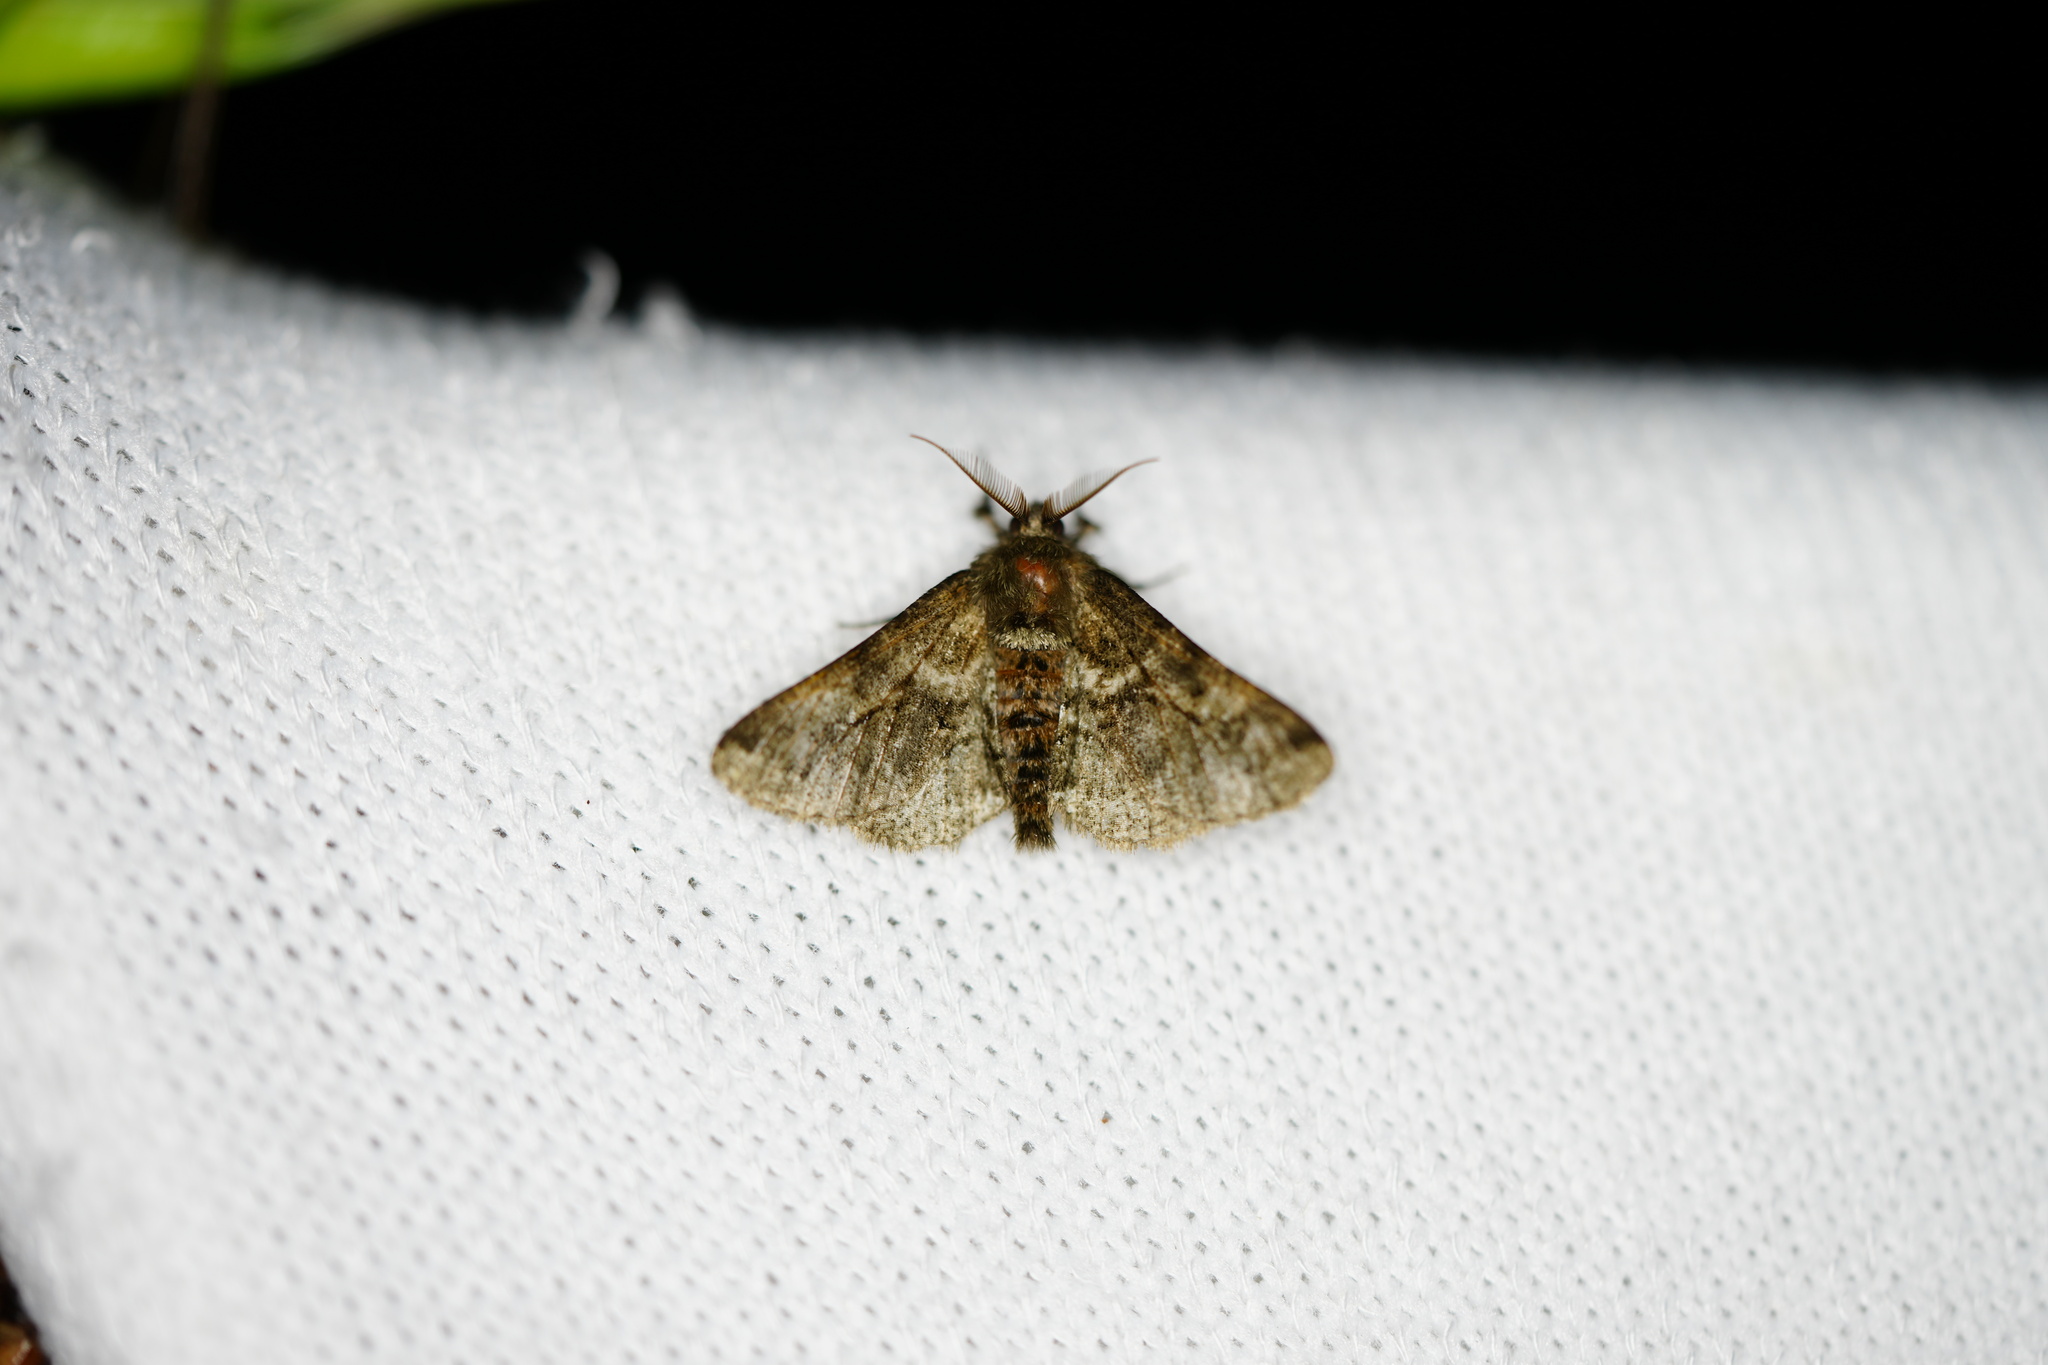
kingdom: Animalia
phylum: Arthropoda
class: Insecta
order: Lepidoptera
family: Geometridae
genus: Lycia
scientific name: Lycia ypsilon
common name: Wooly gray
